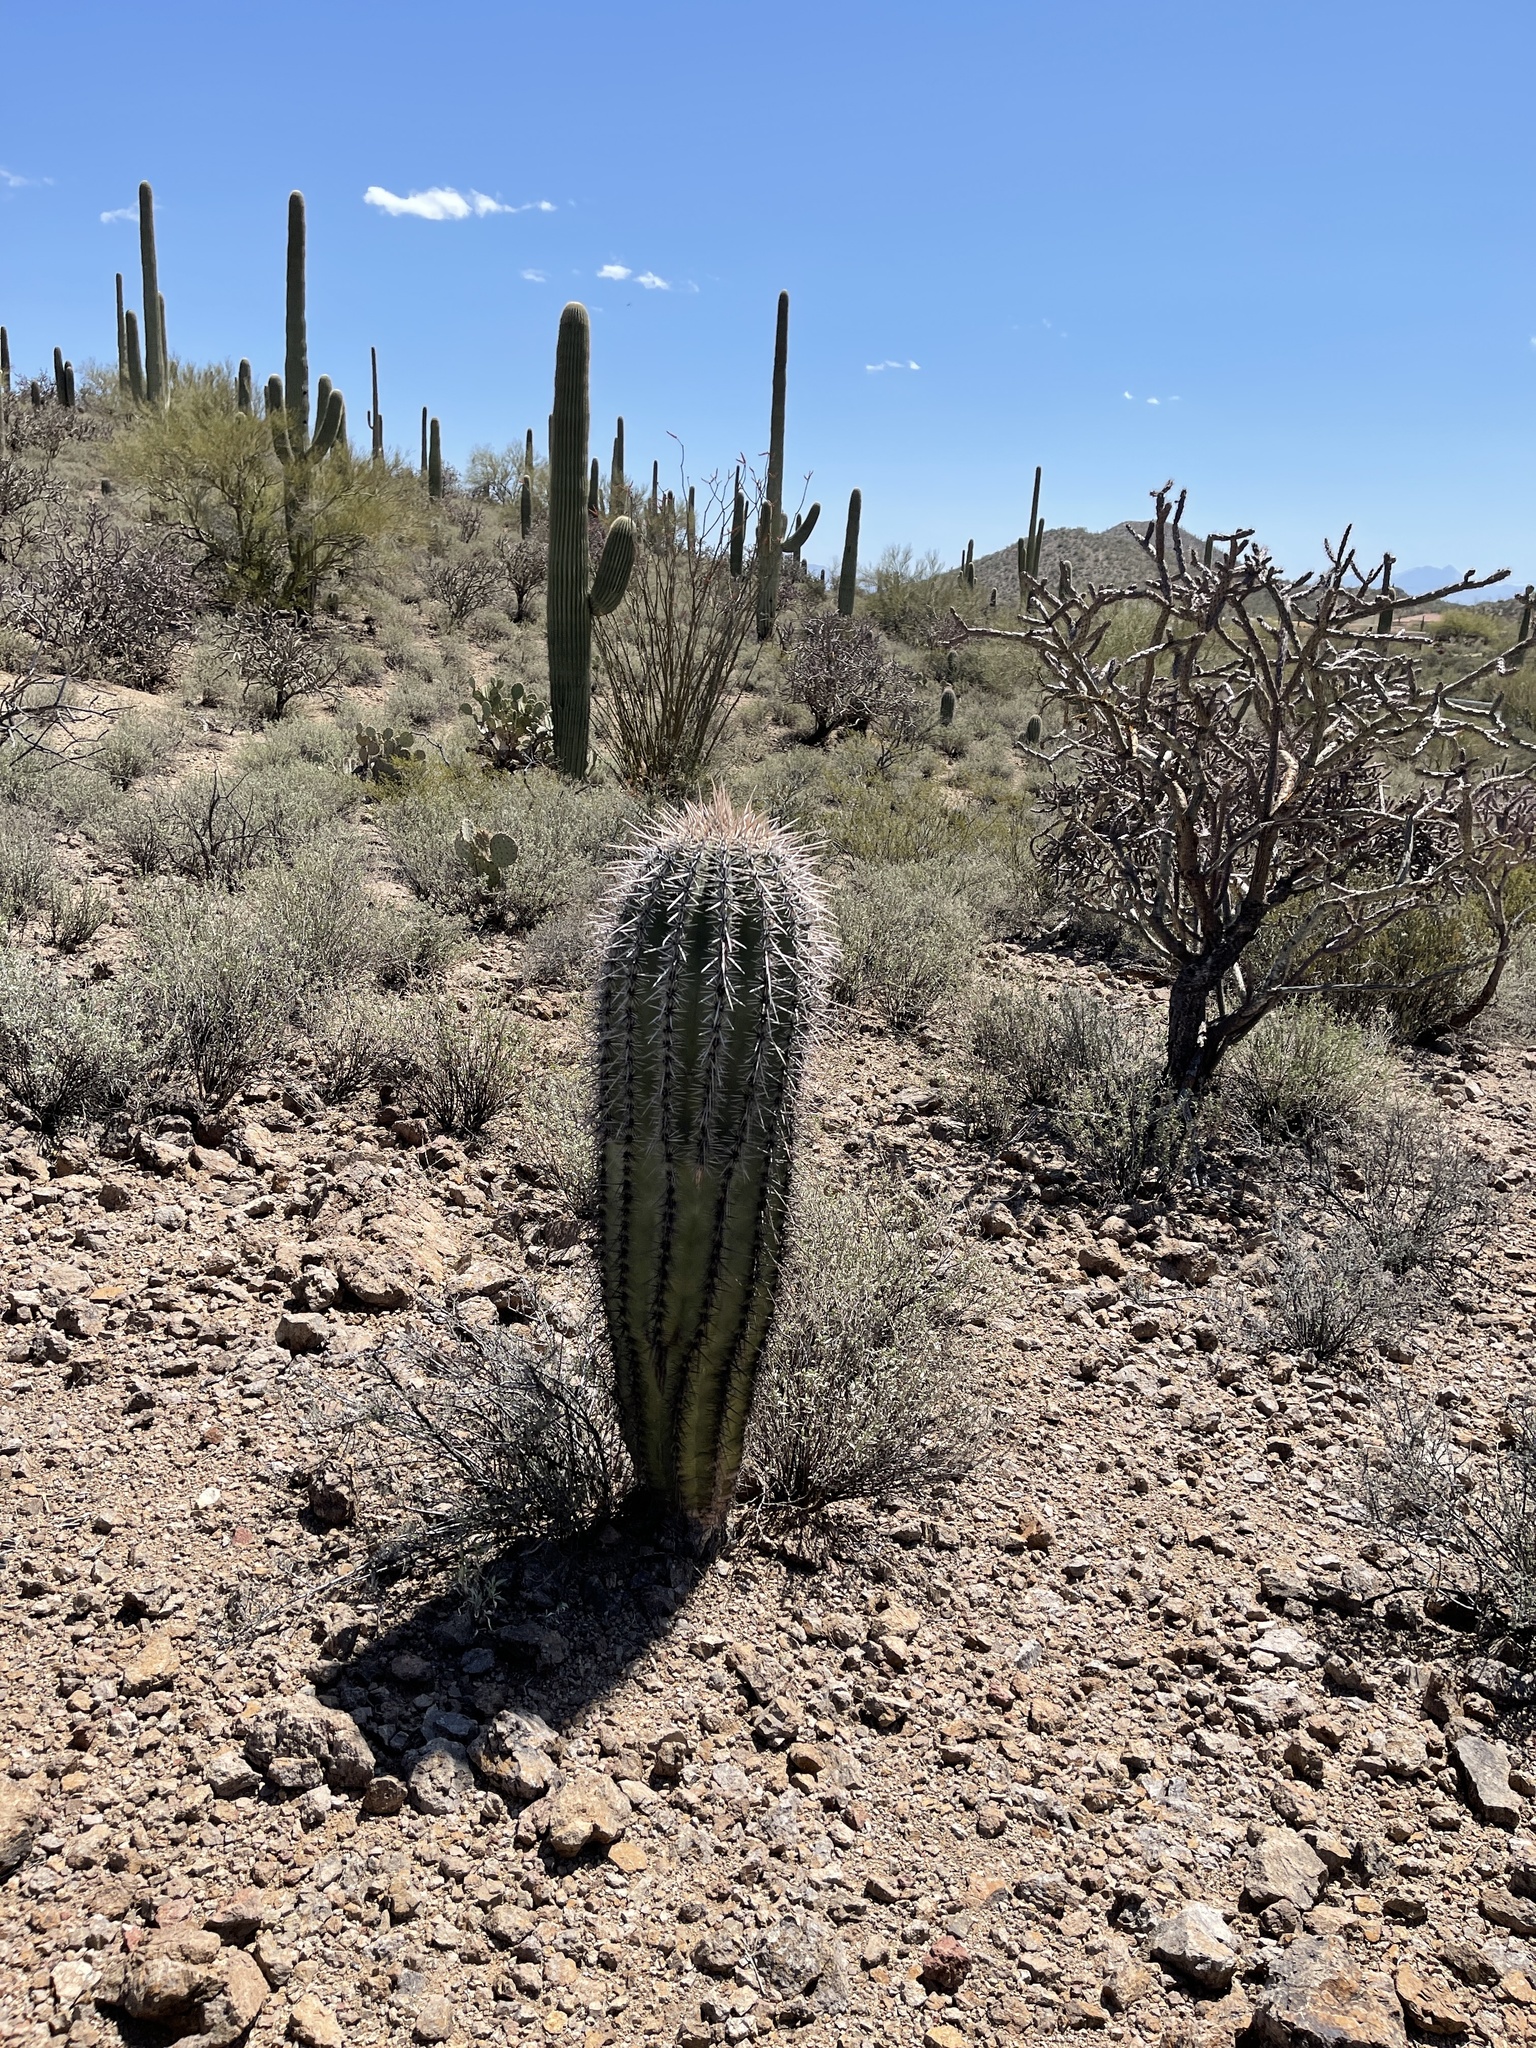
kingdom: Plantae
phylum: Tracheophyta
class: Magnoliopsida
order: Caryophyllales
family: Cactaceae
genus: Carnegiea
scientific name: Carnegiea gigantea
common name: Saguaro
